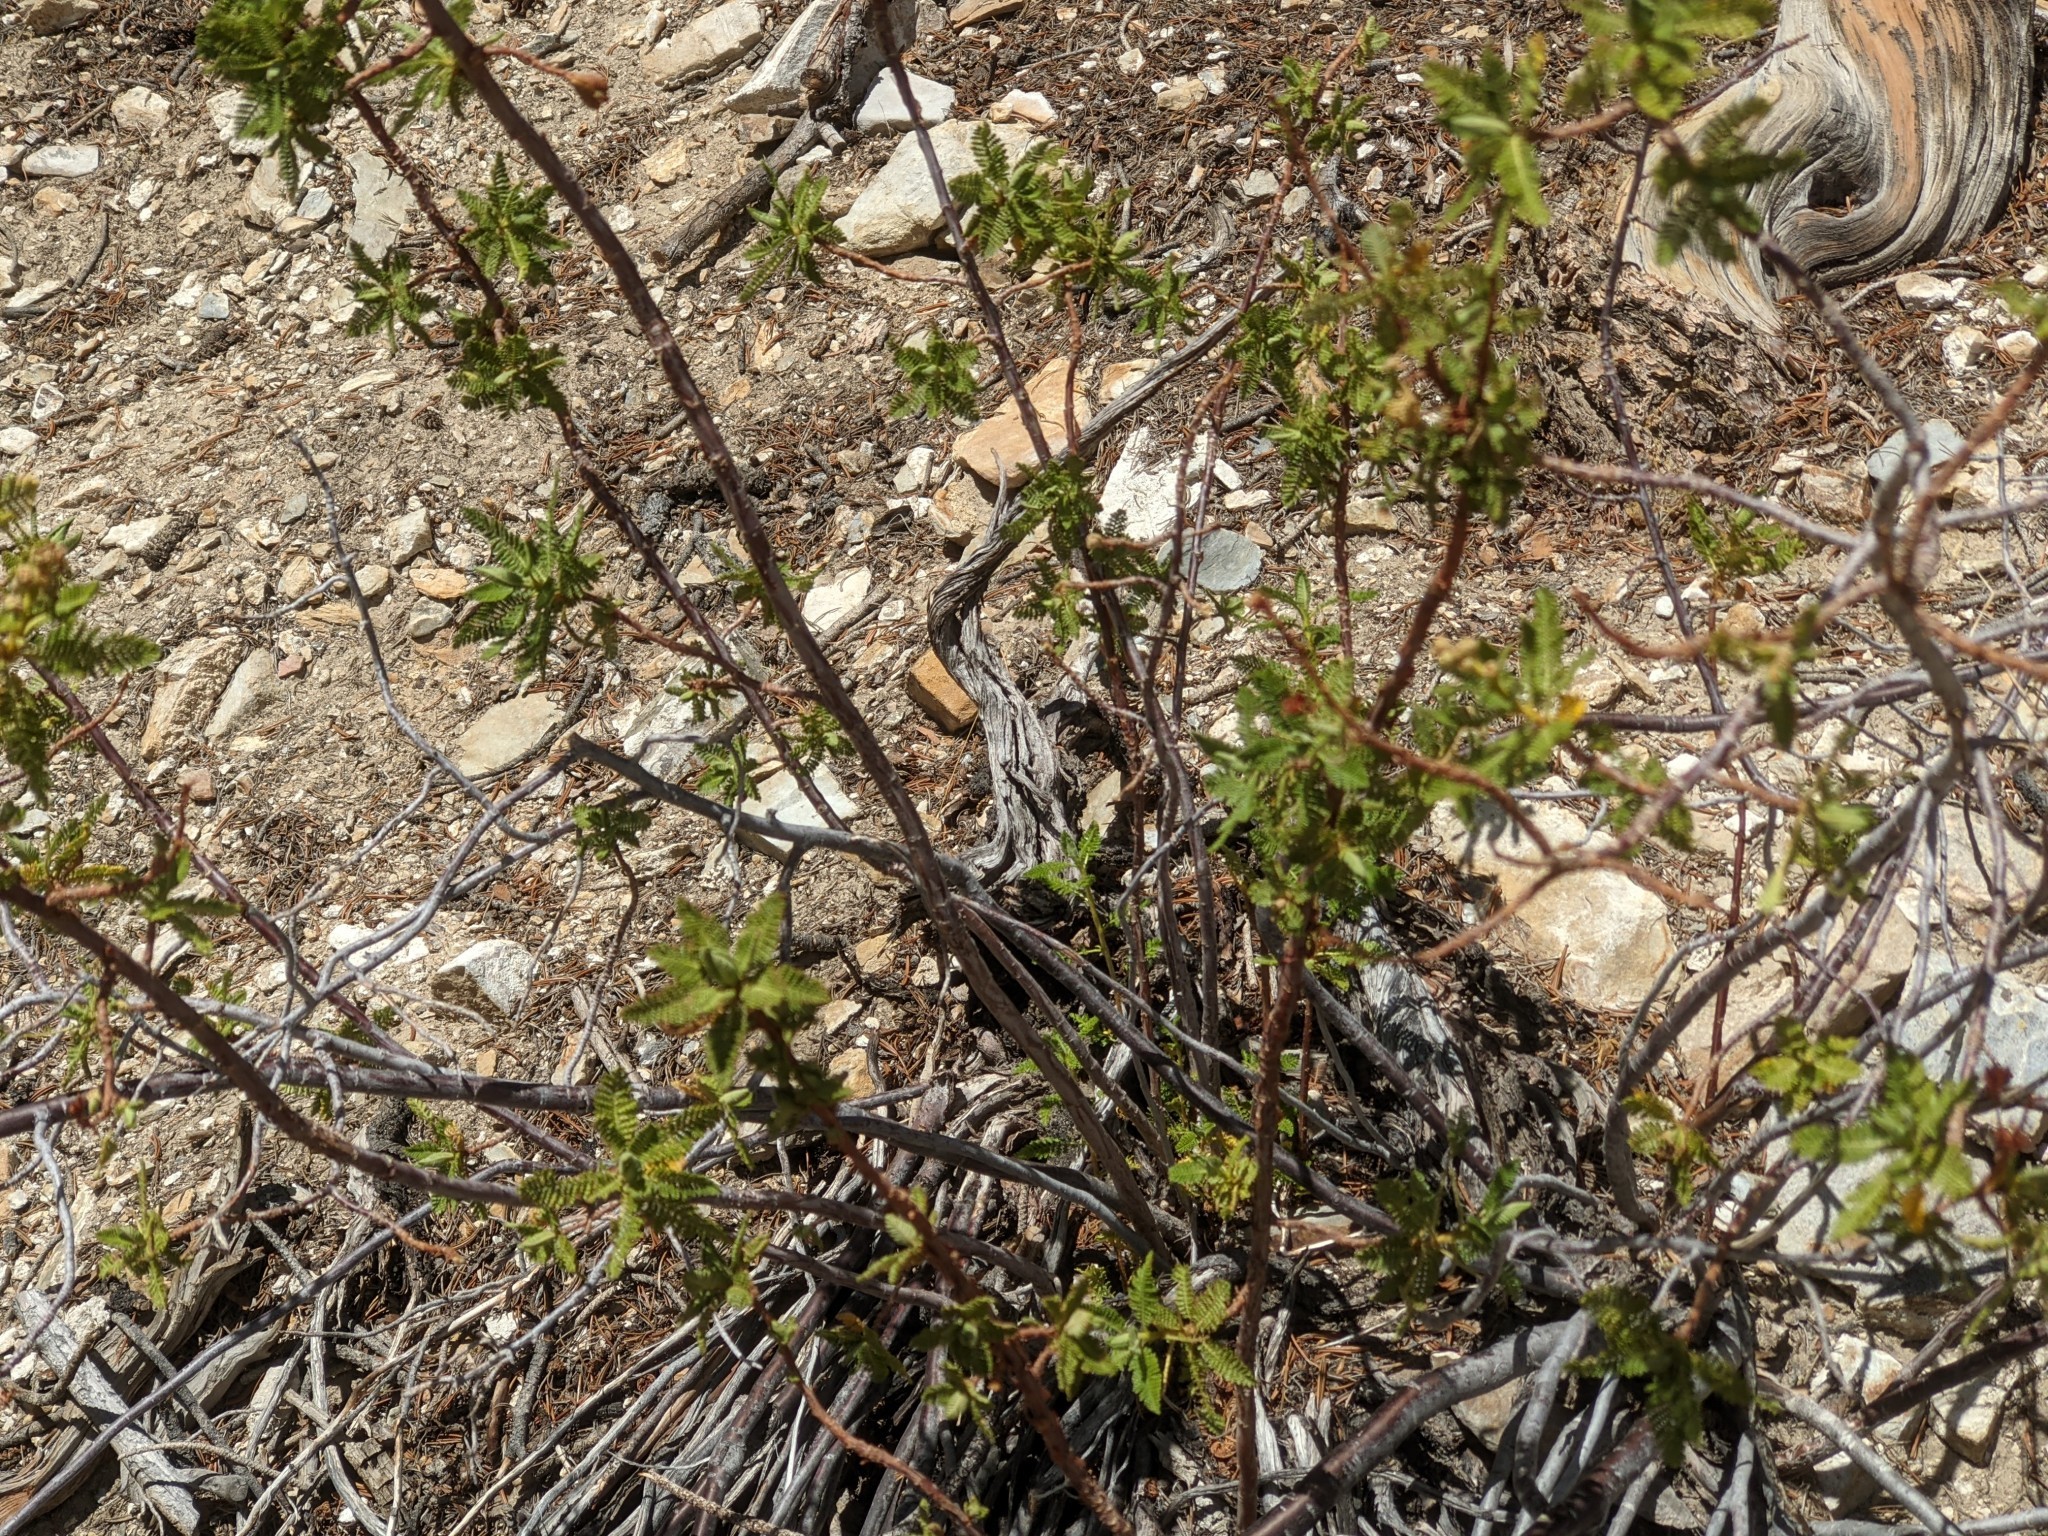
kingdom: Plantae
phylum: Tracheophyta
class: Magnoliopsida
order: Rosales
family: Rosaceae
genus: Chamaebatiaria
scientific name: Chamaebatiaria millefolium
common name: Fernbush
